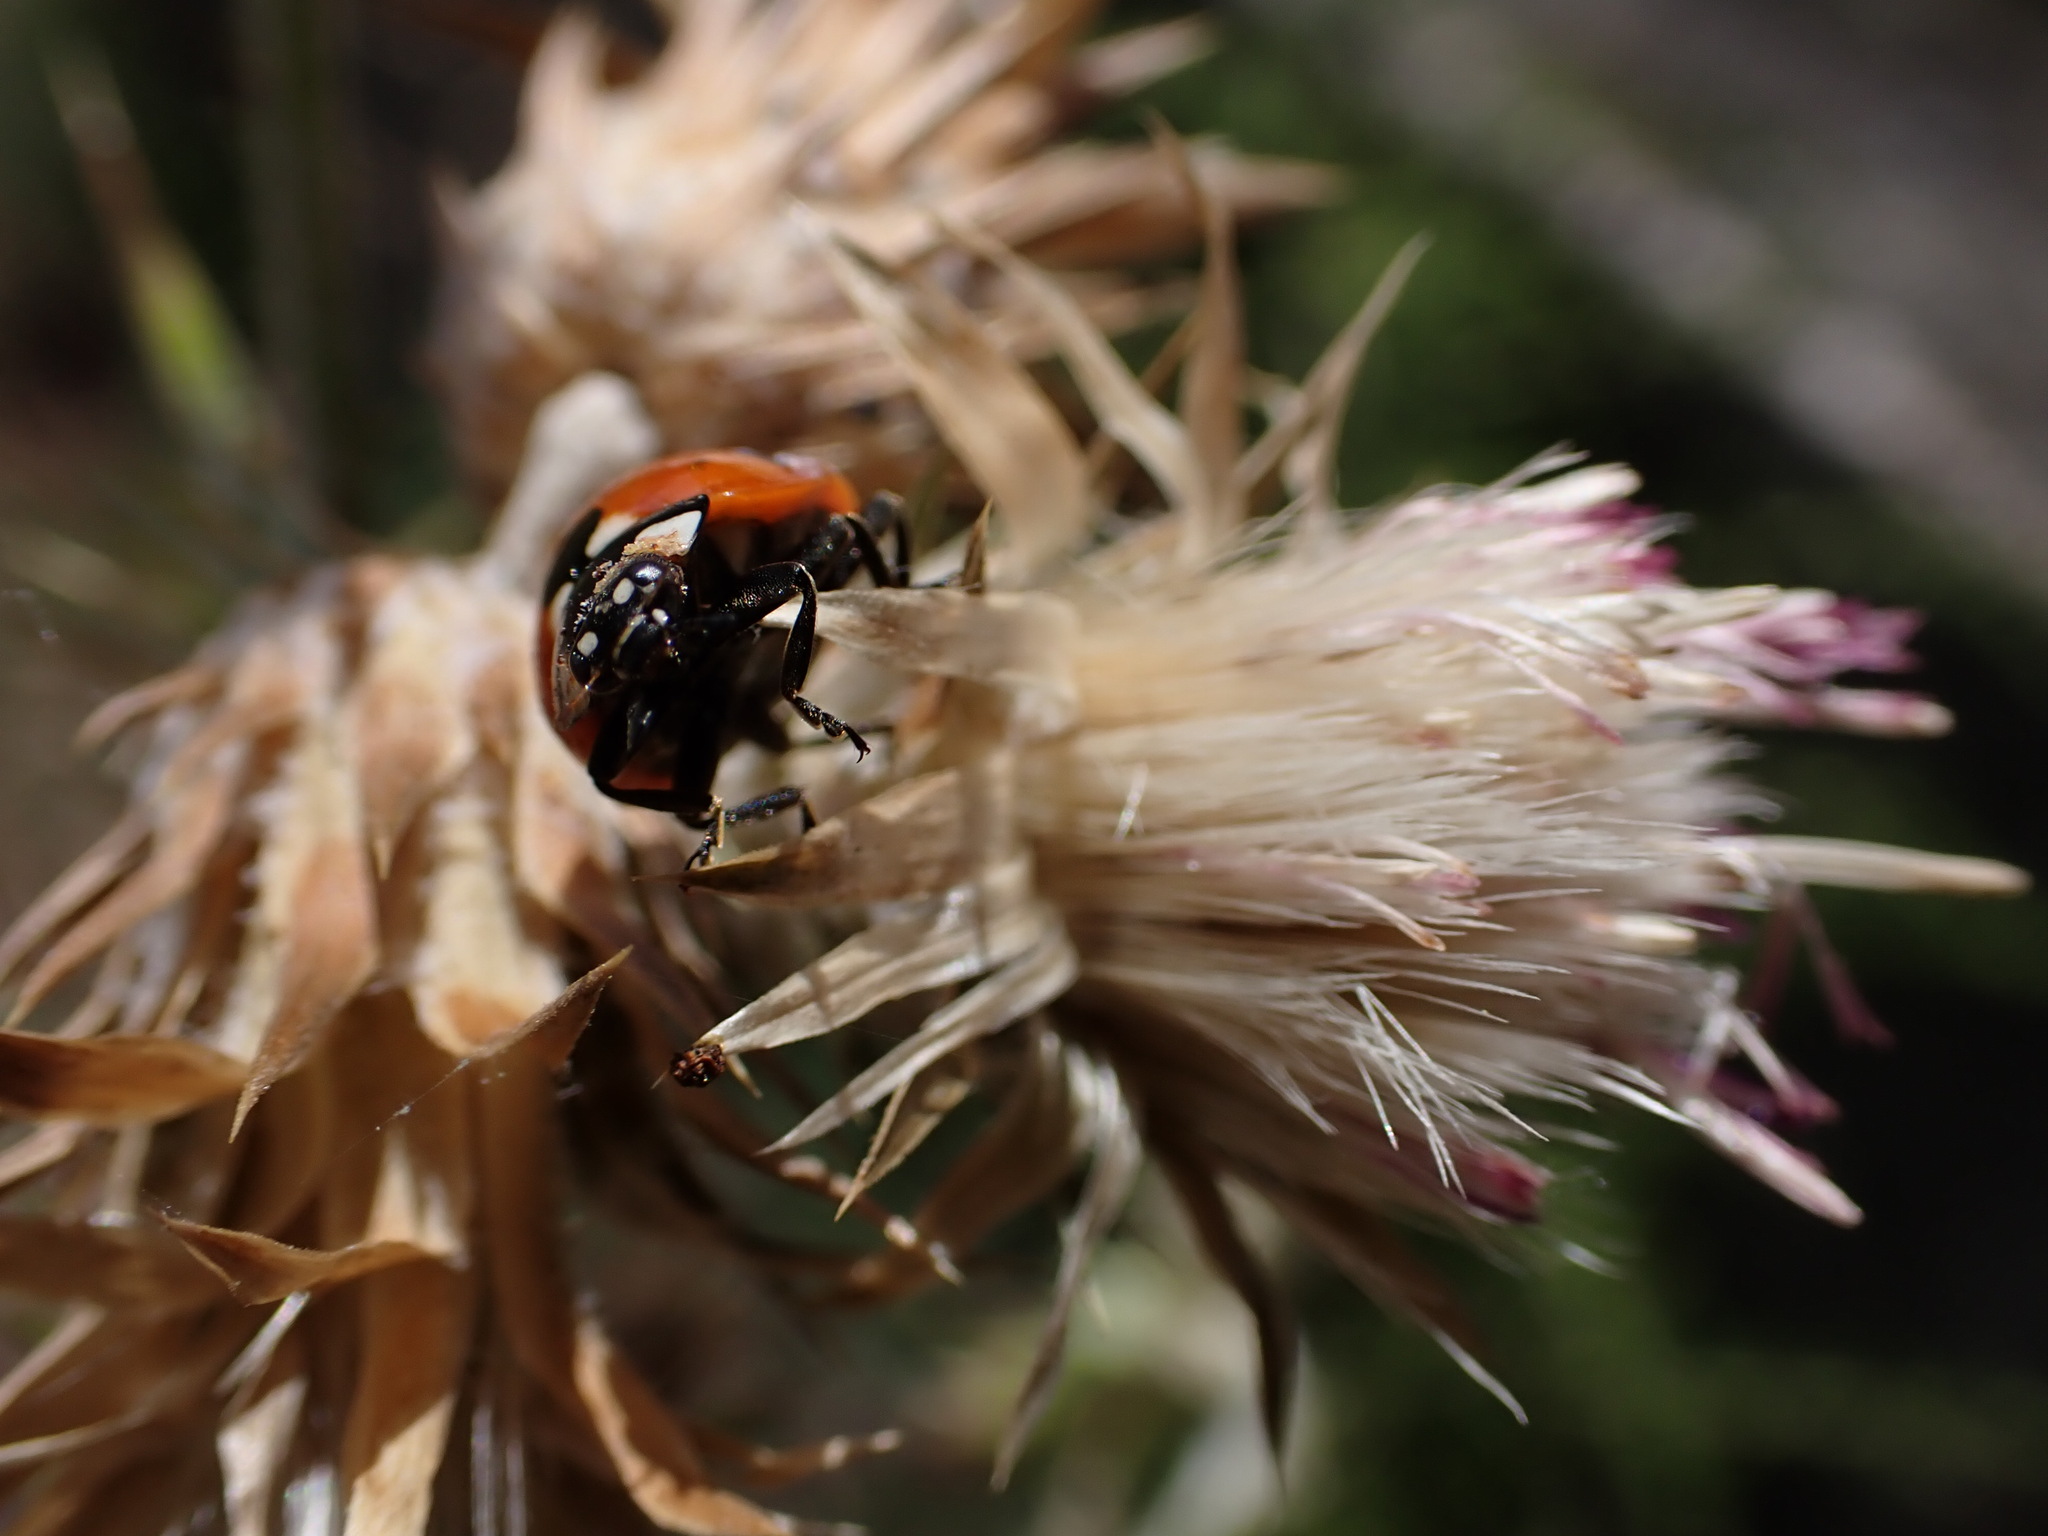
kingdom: Animalia
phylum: Arthropoda
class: Insecta
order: Coleoptera
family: Coccinellidae
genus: Coccinella
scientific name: Coccinella septempunctata
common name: Sevenspotted lady beetle
